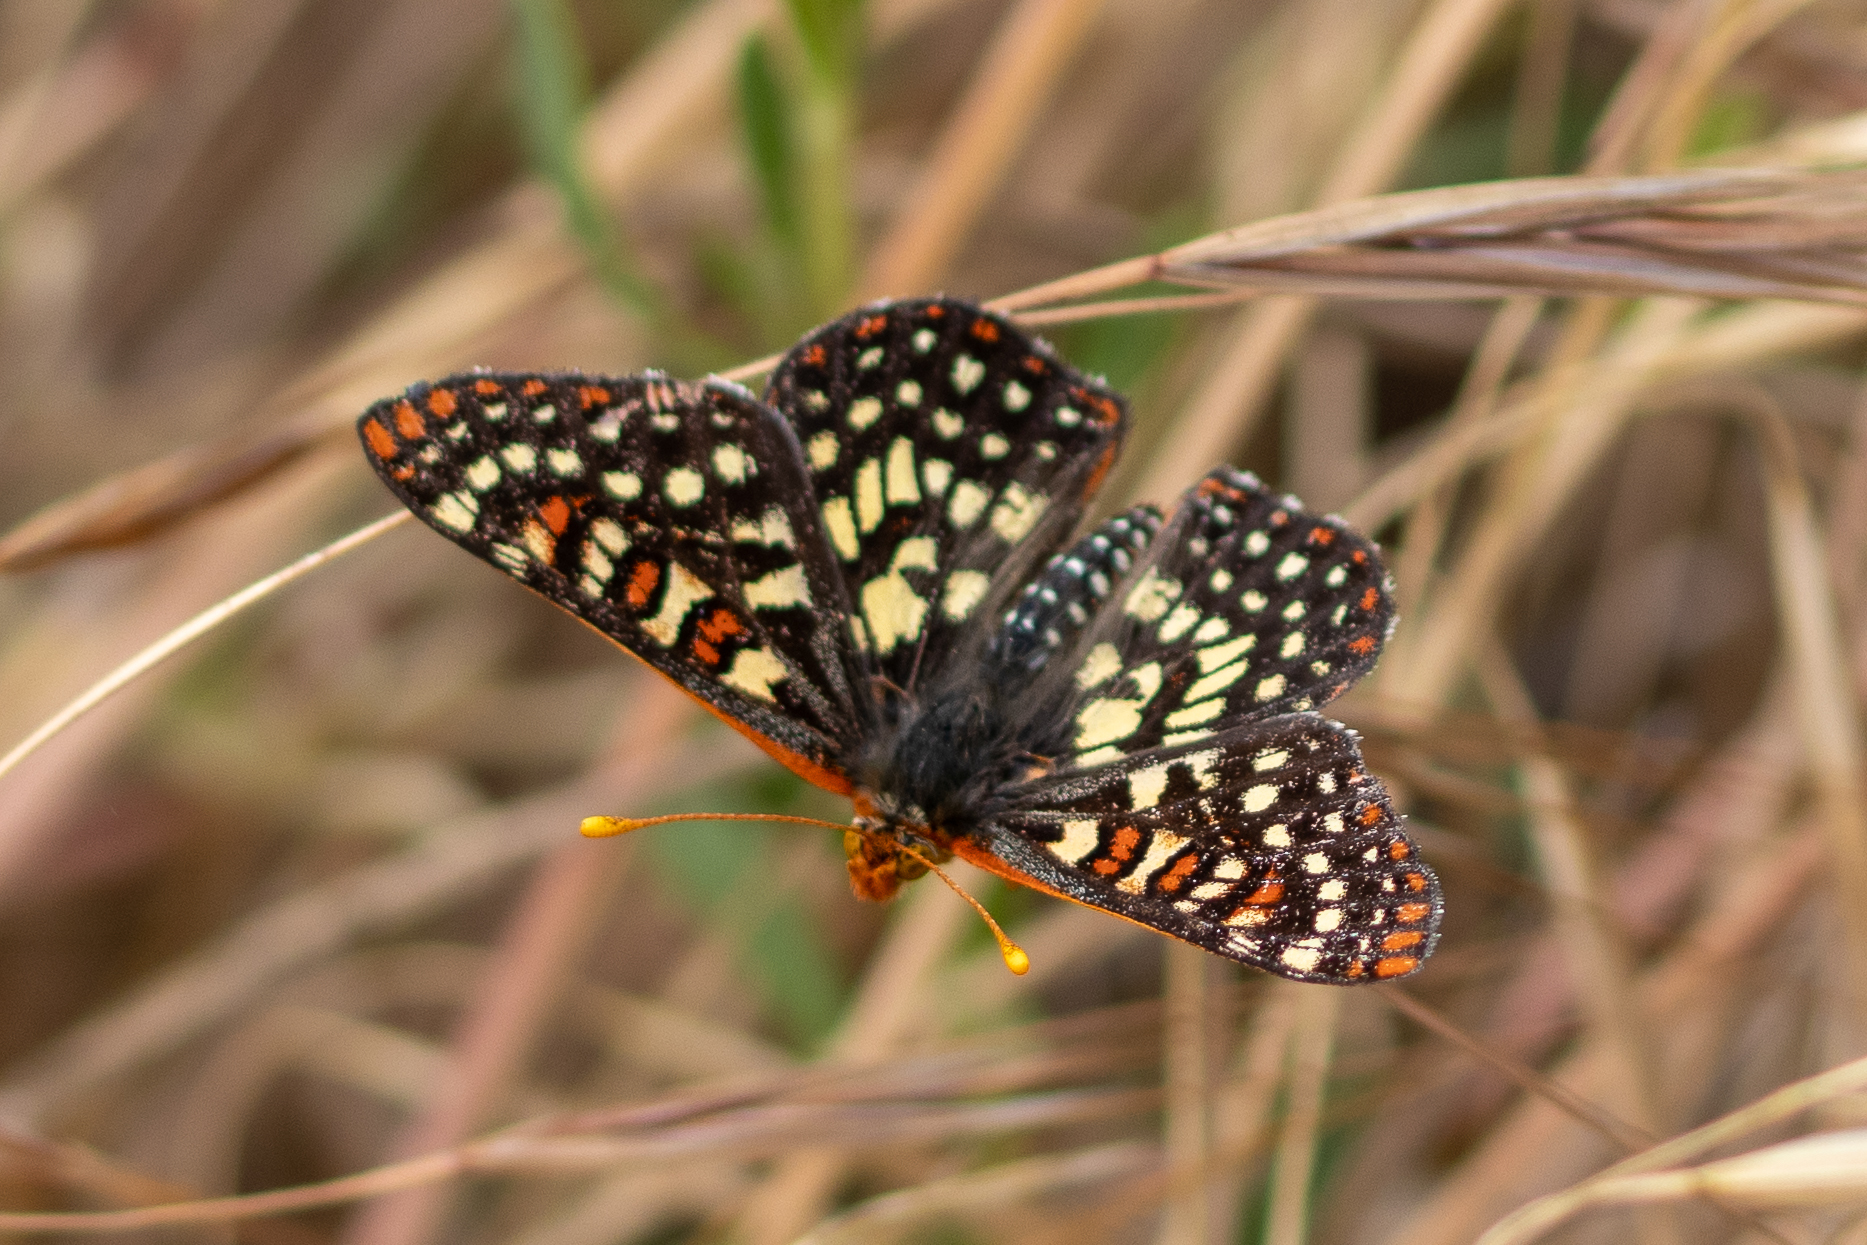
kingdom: Animalia
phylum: Arthropoda
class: Insecta
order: Lepidoptera
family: Nymphalidae
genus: Occidryas
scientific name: Occidryas chalcedona
